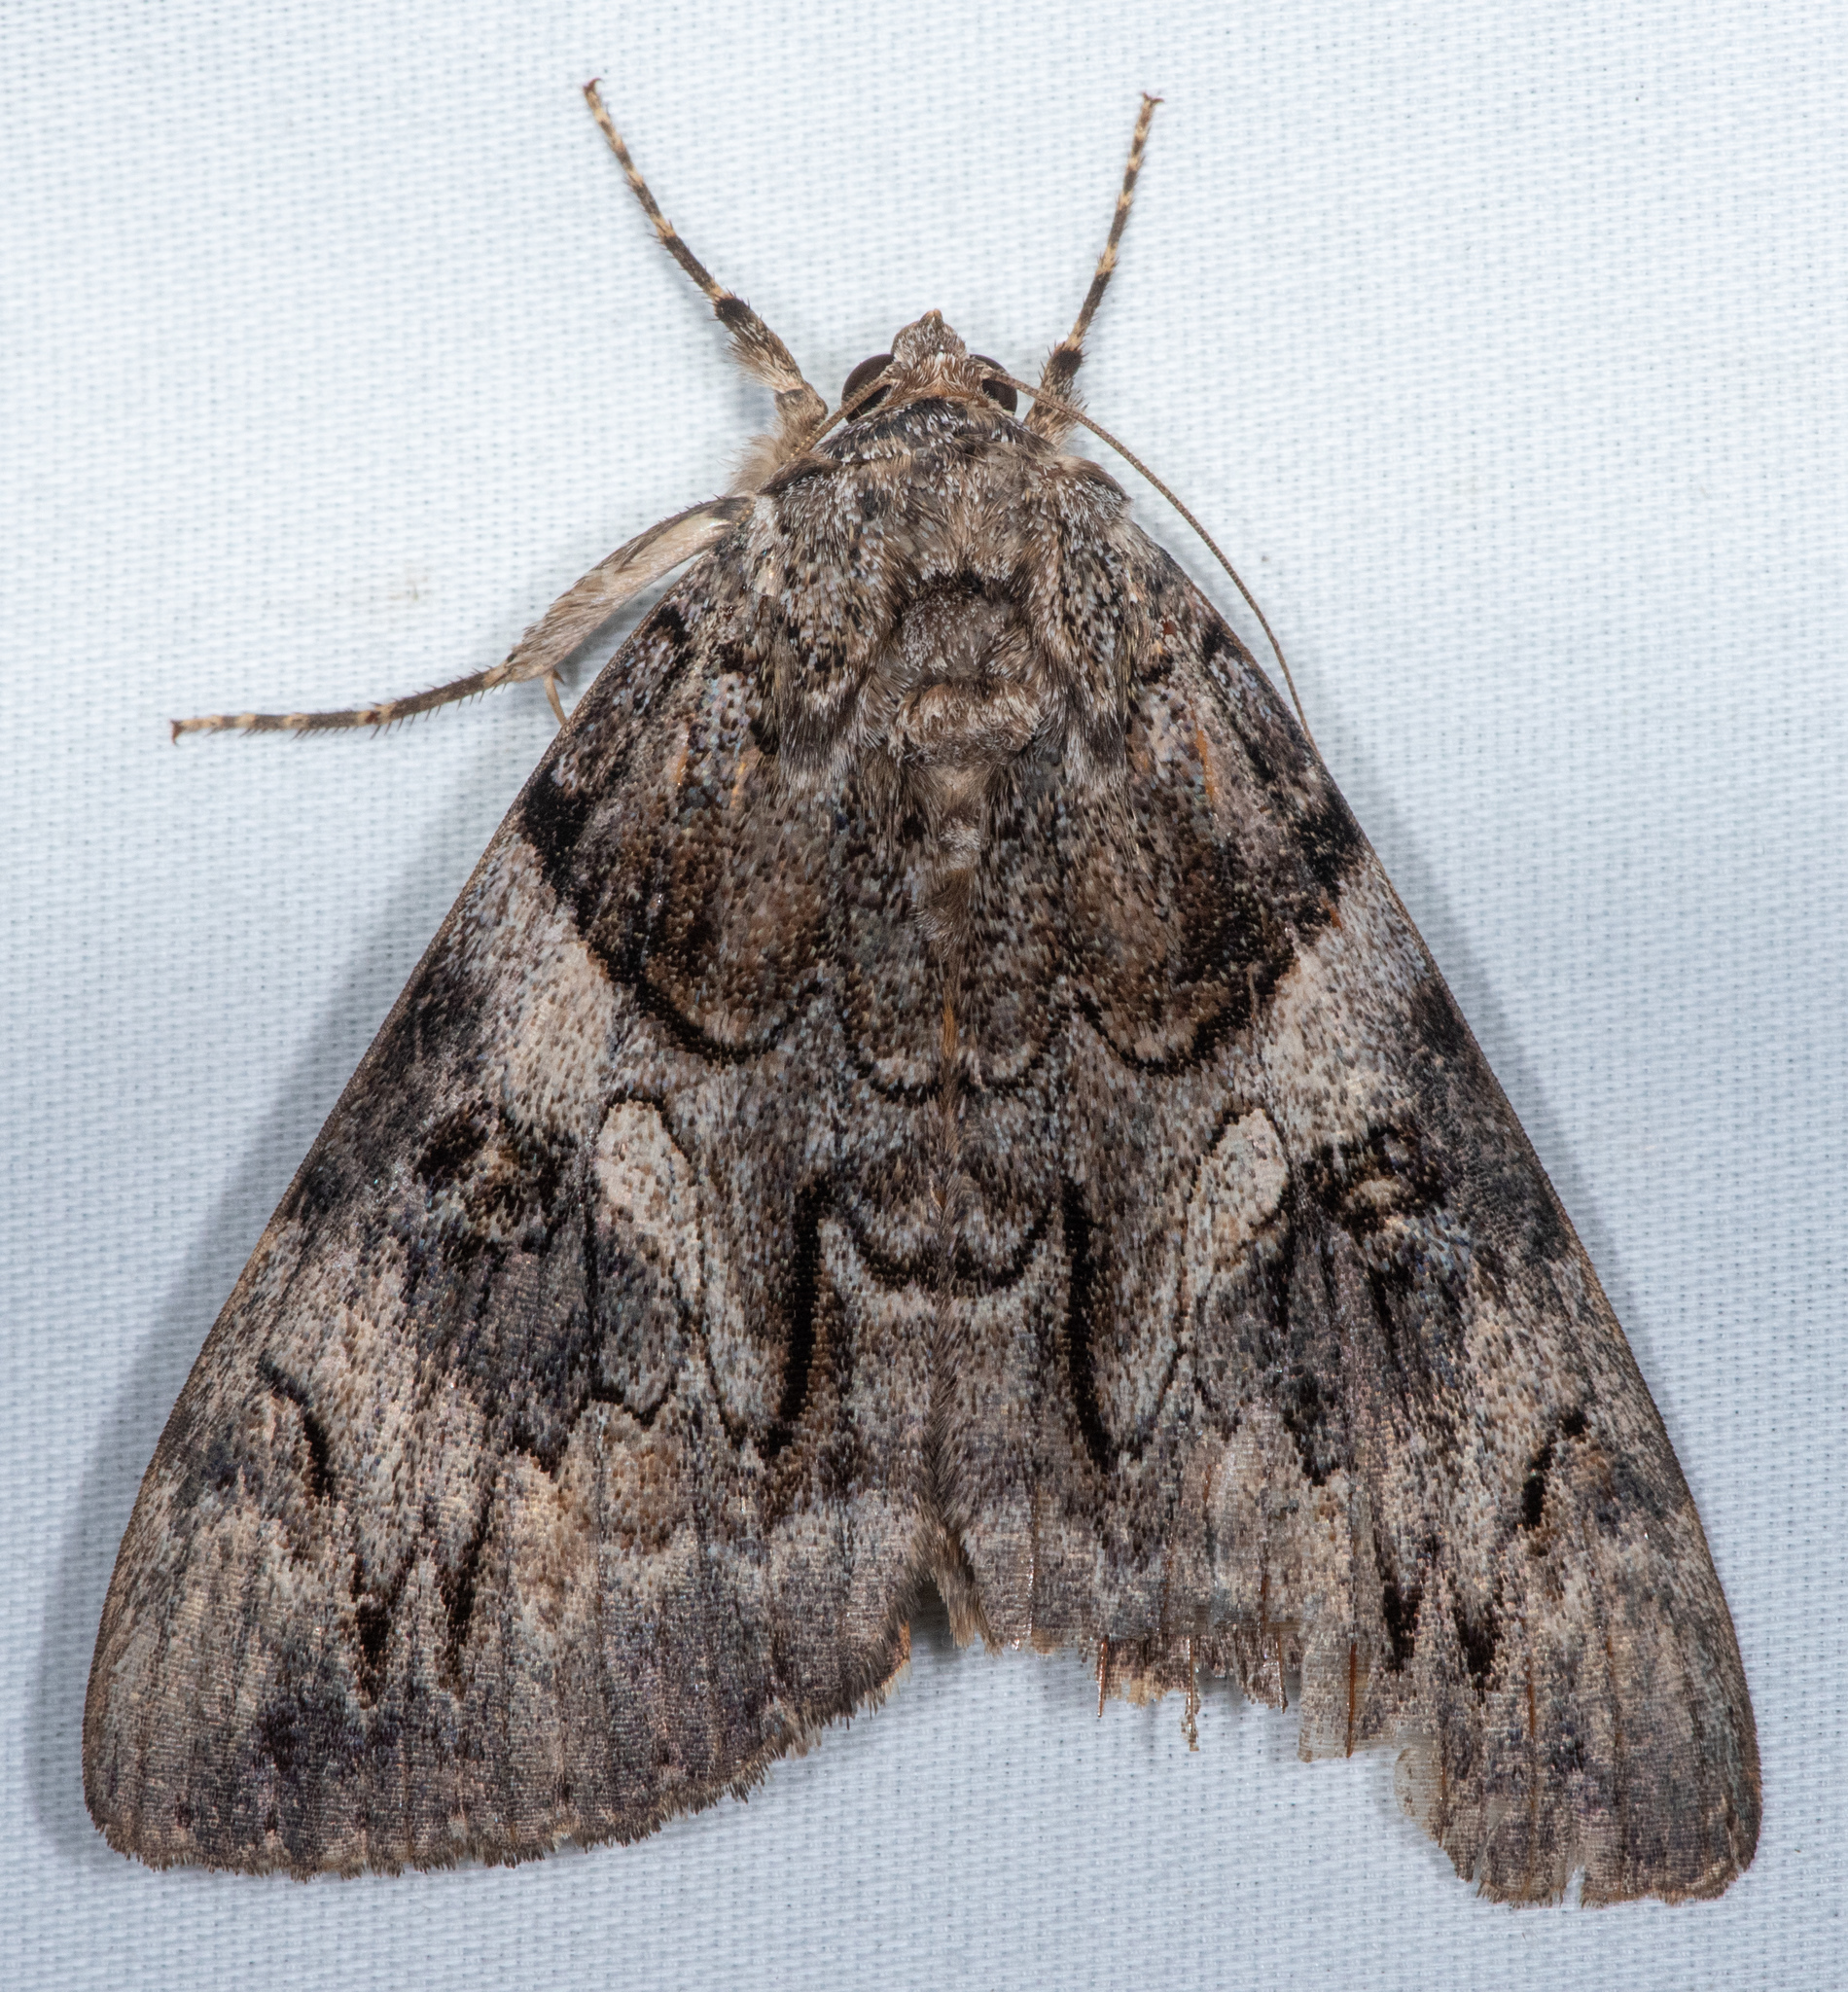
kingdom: Animalia
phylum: Arthropoda
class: Insecta
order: Lepidoptera
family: Erebidae
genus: Catocala
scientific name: Catocala piatrix
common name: The penitent underwing
